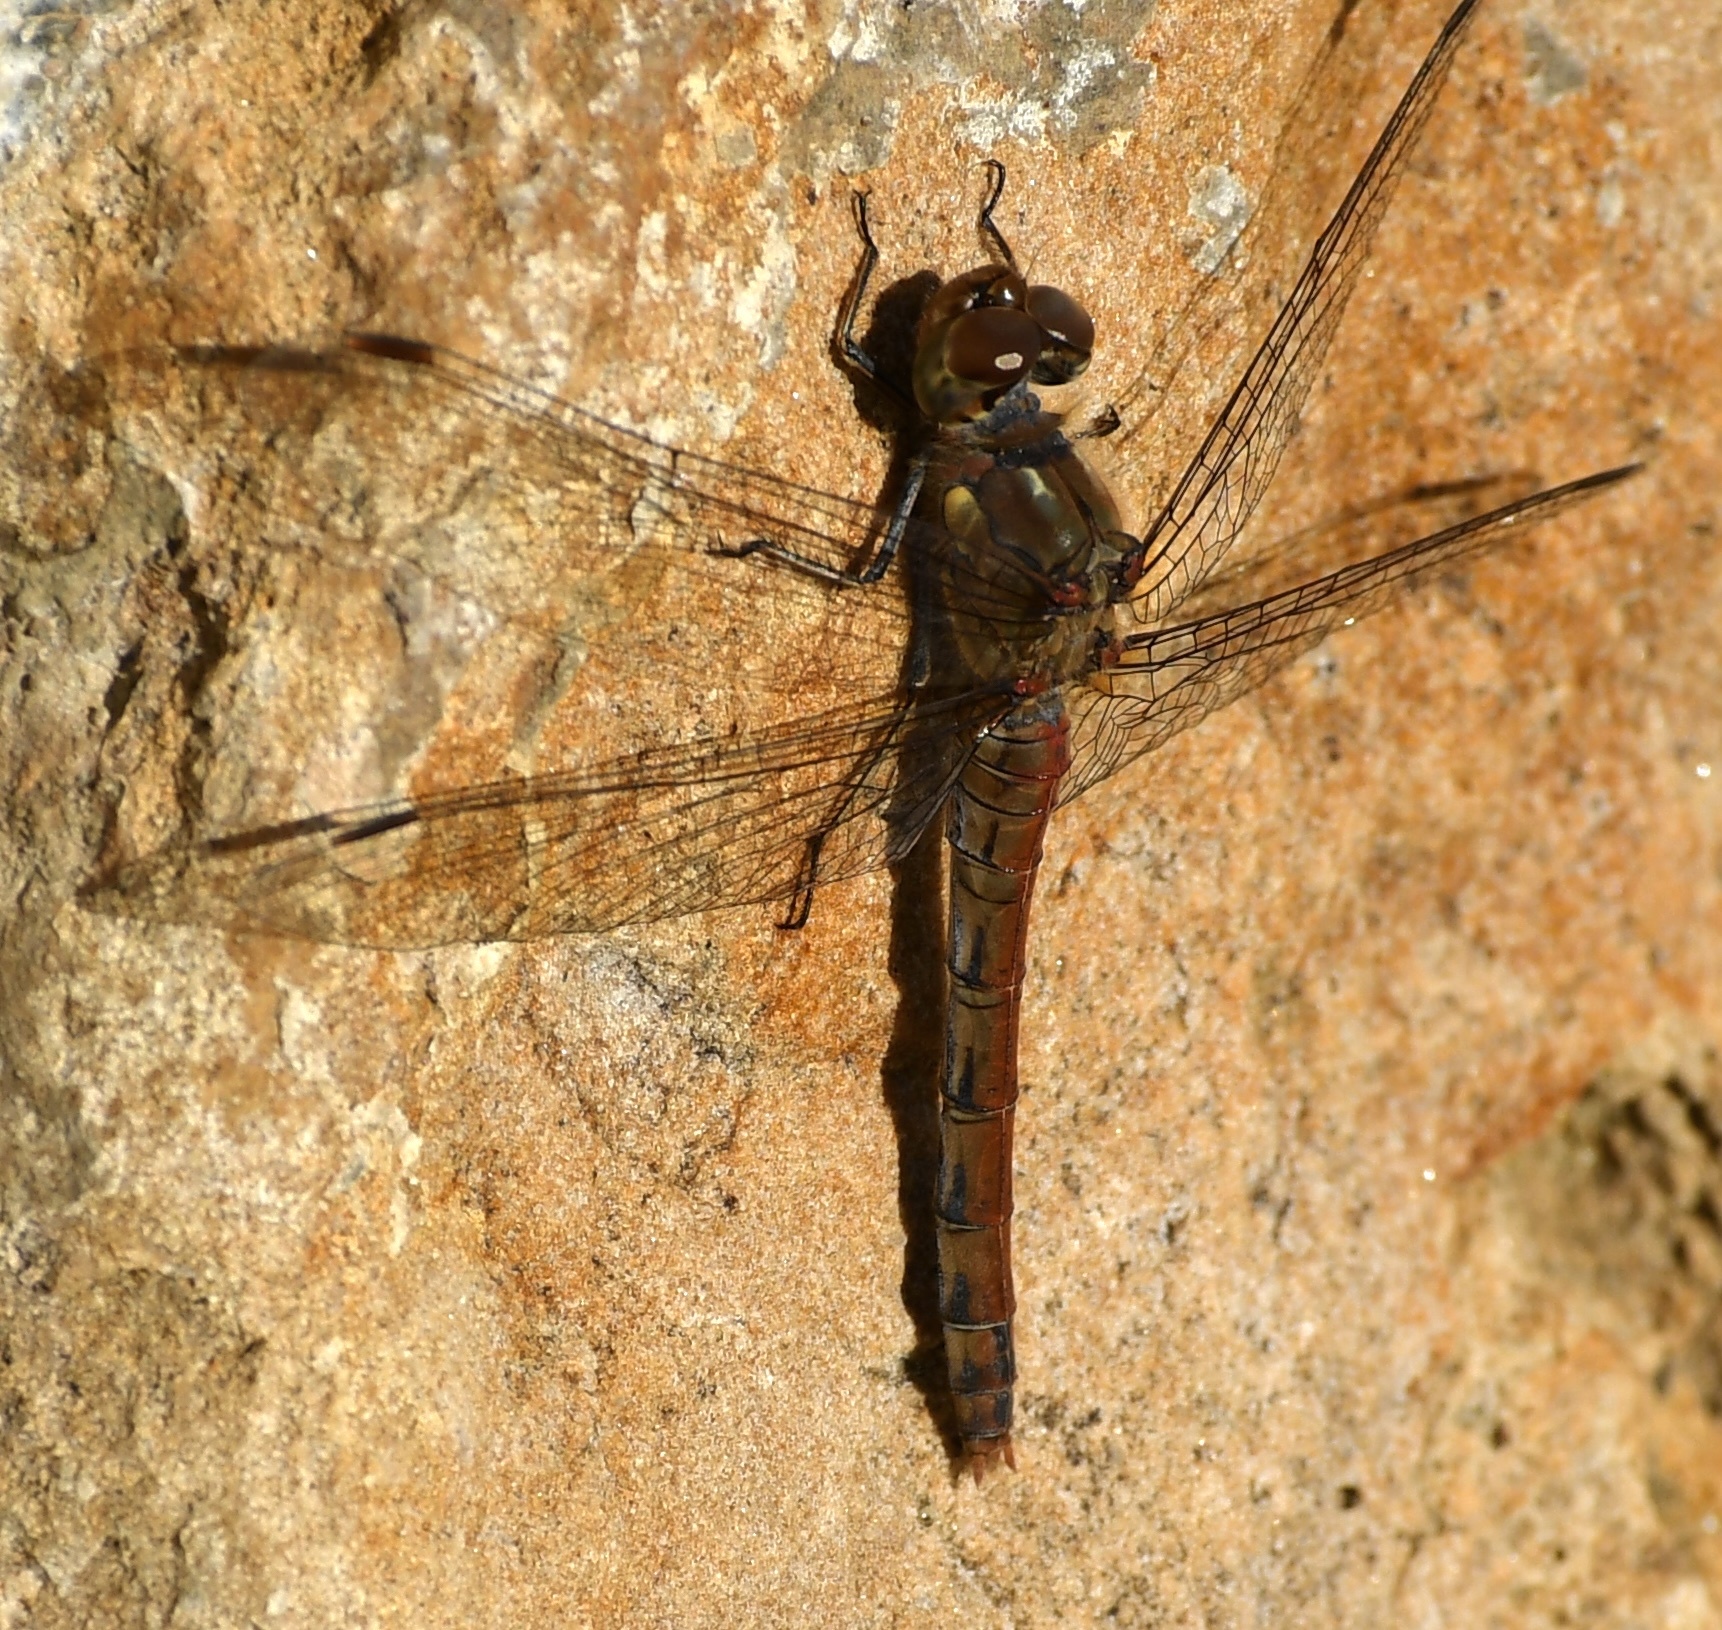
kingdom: Animalia
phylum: Arthropoda
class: Insecta
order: Odonata
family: Libellulidae
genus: Sympetrum
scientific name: Sympetrum striolatum
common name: Common darter
